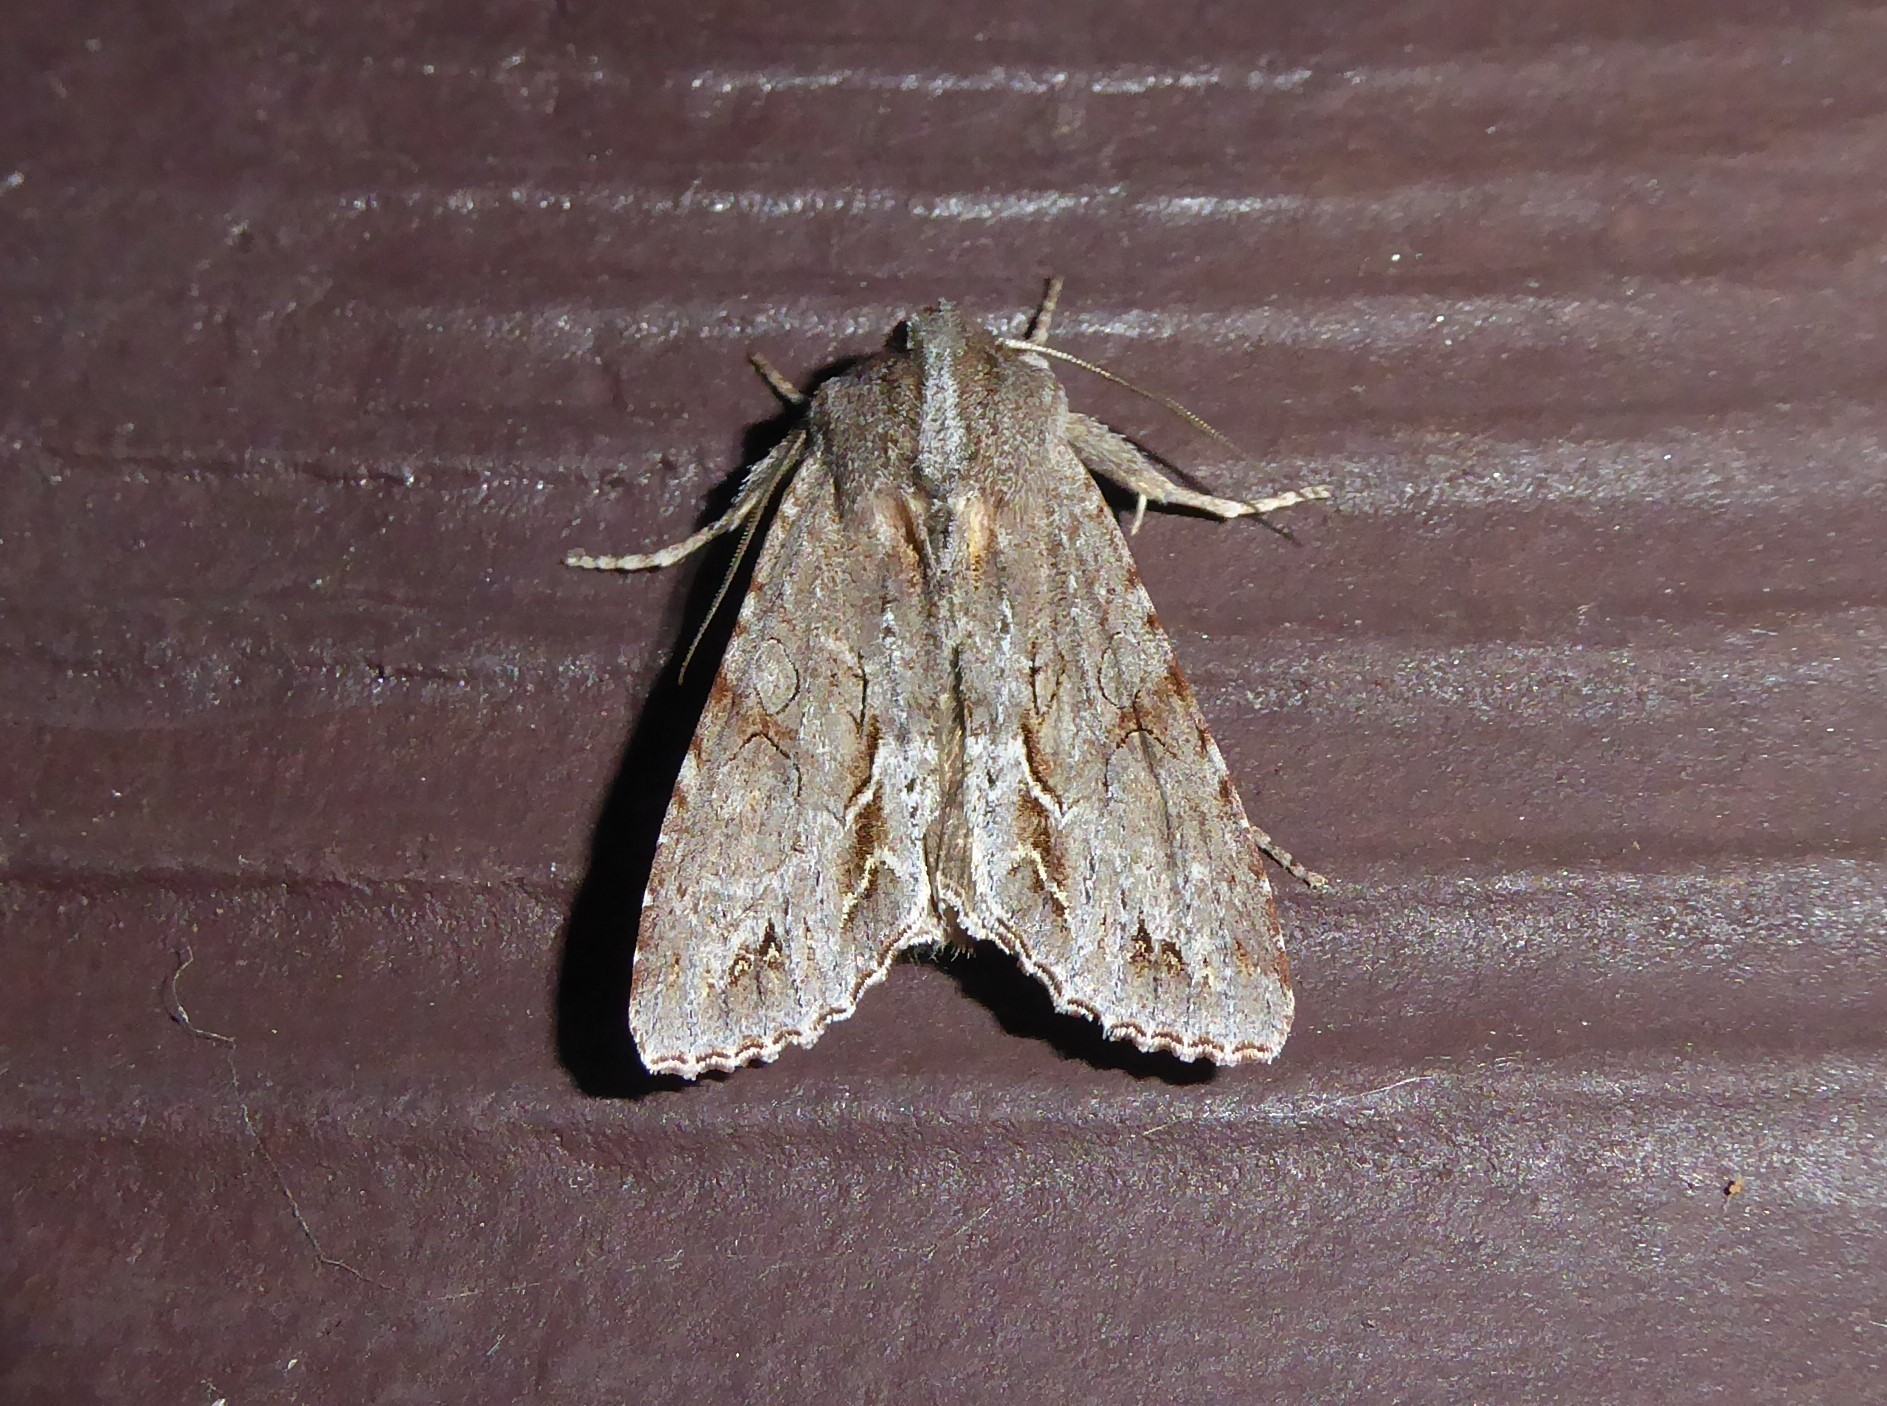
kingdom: Animalia
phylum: Arthropoda
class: Insecta
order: Lepidoptera
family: Noctuidae
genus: Ichneutica
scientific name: Ichneutica
